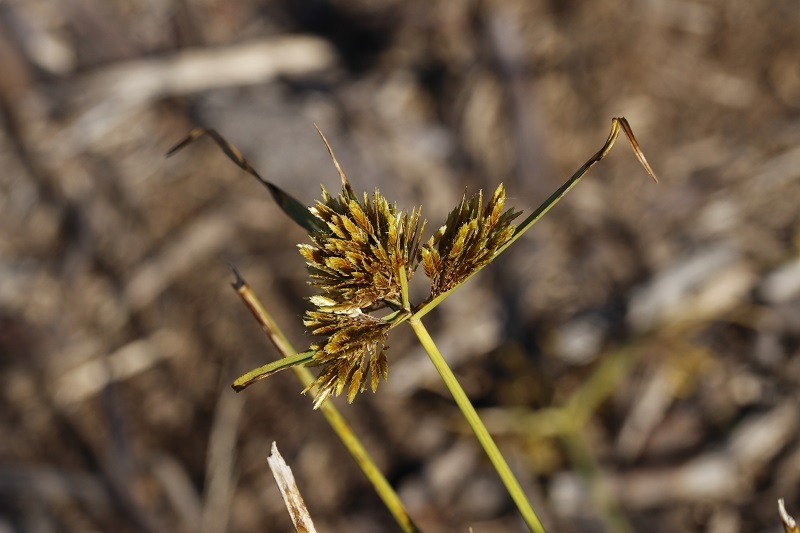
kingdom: Plantae
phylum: Tracheophyta
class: Liliopsida
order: Poales
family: Cyperaceae
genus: Cyperus
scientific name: Cyperus polystachyos
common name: Bunchy flat sedge
